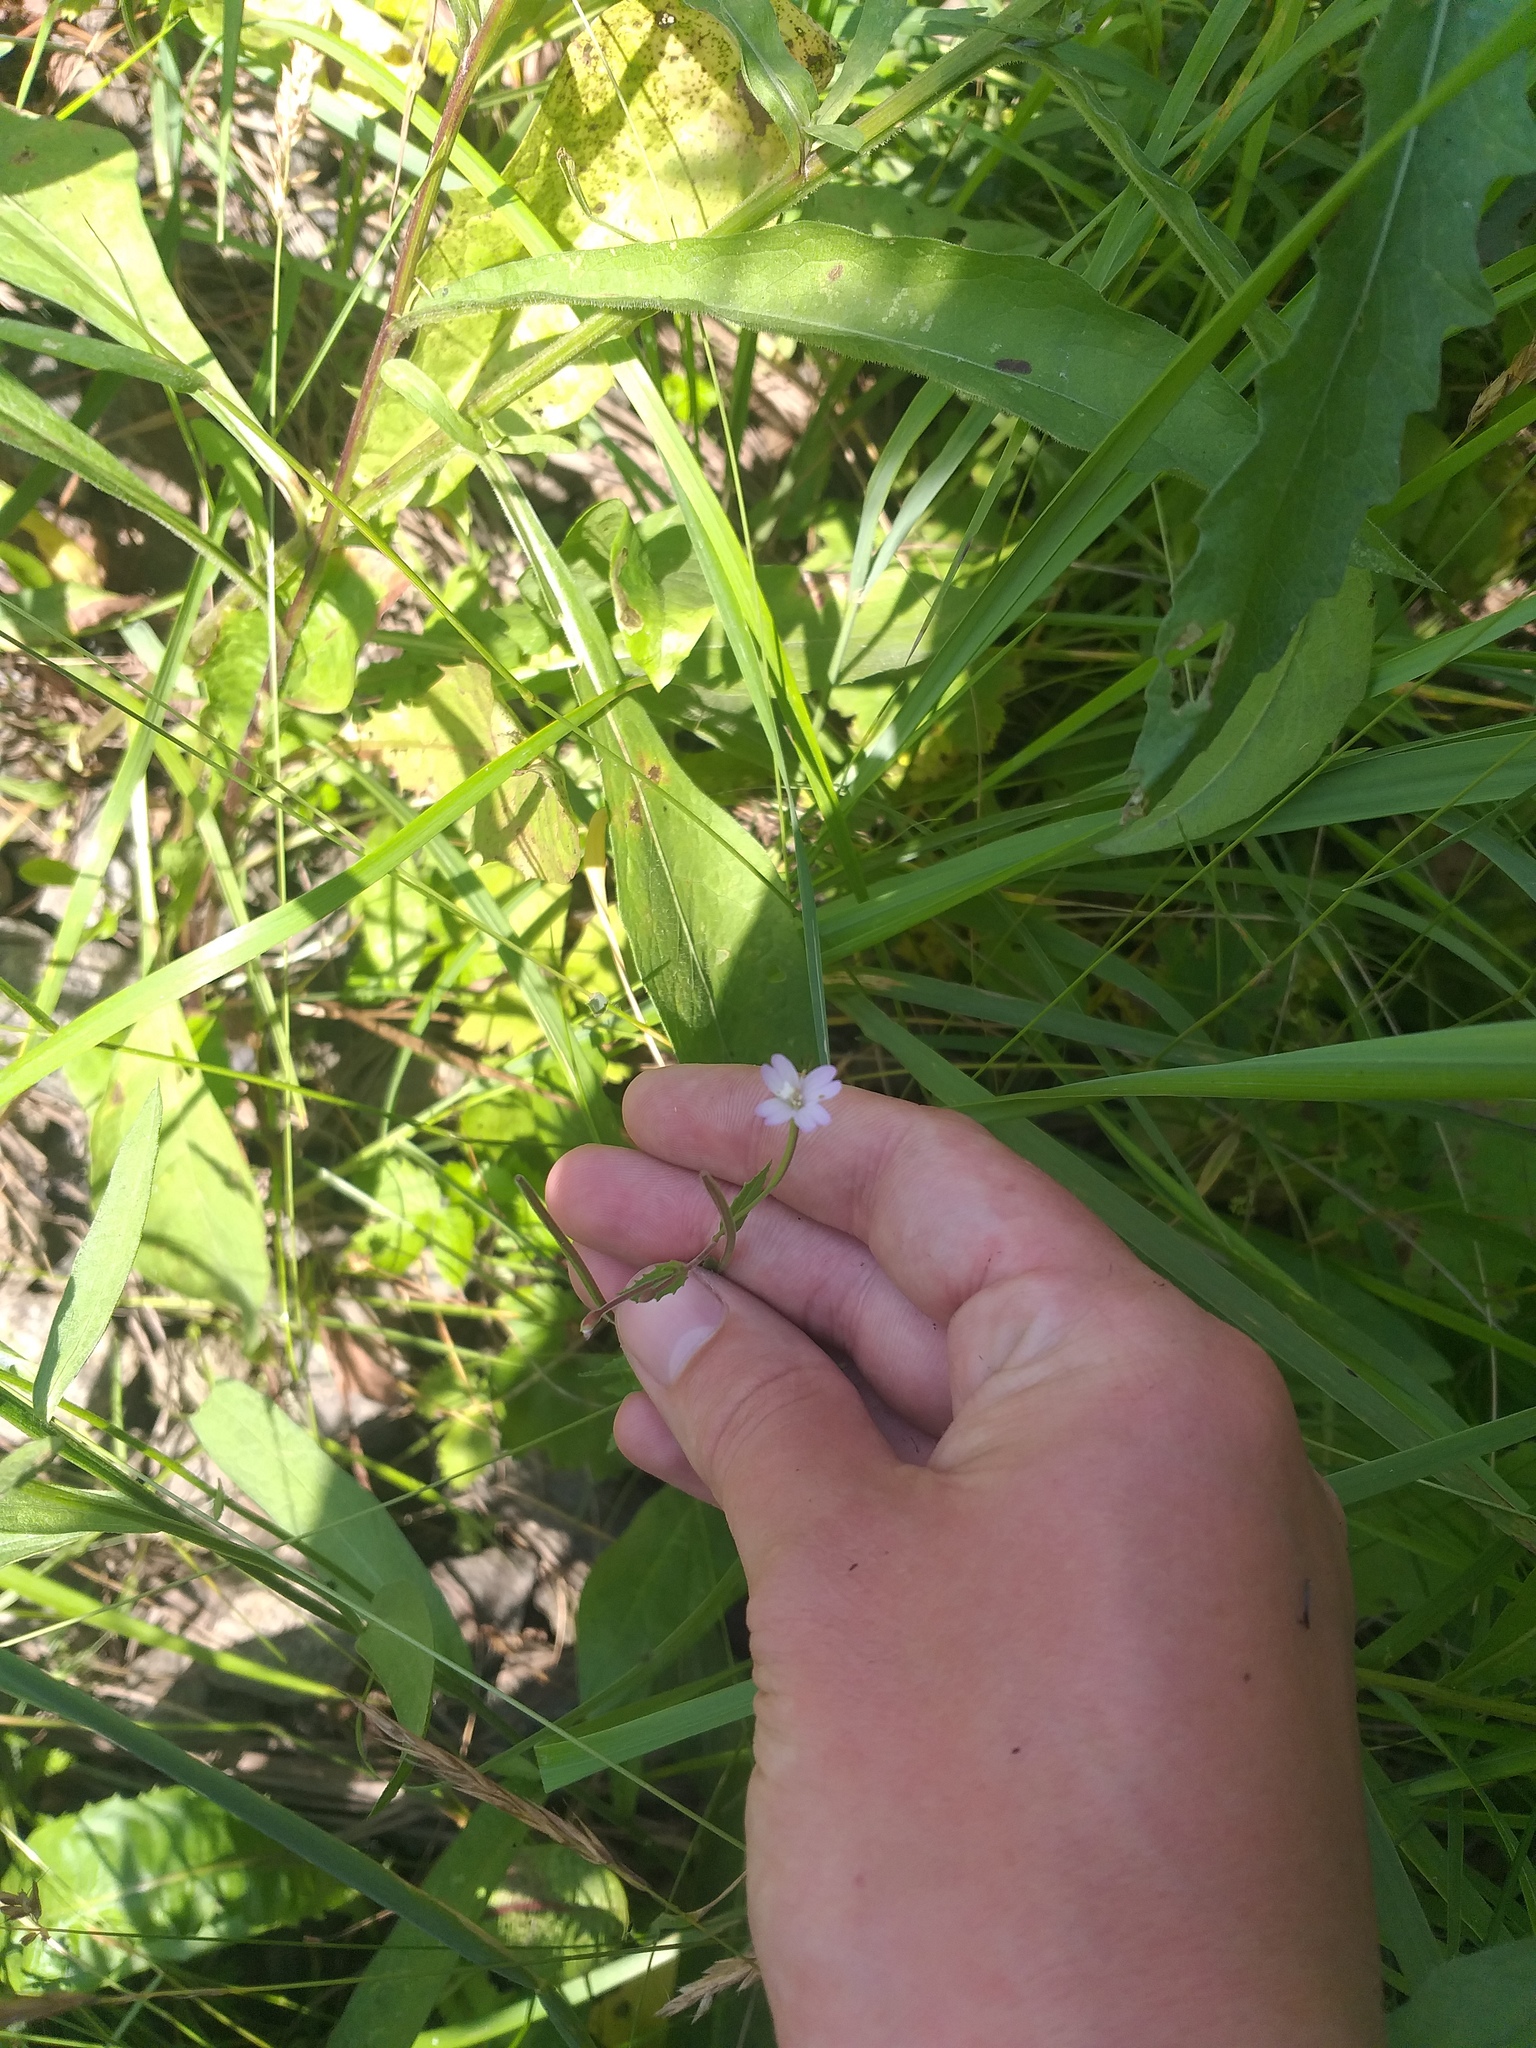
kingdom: Plantae
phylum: Tracheophyta
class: Magnoliopsida
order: Myrtales
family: Onagraceae
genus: Epilobium
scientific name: Epilobium montanum
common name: Broad-leaved willowherb
